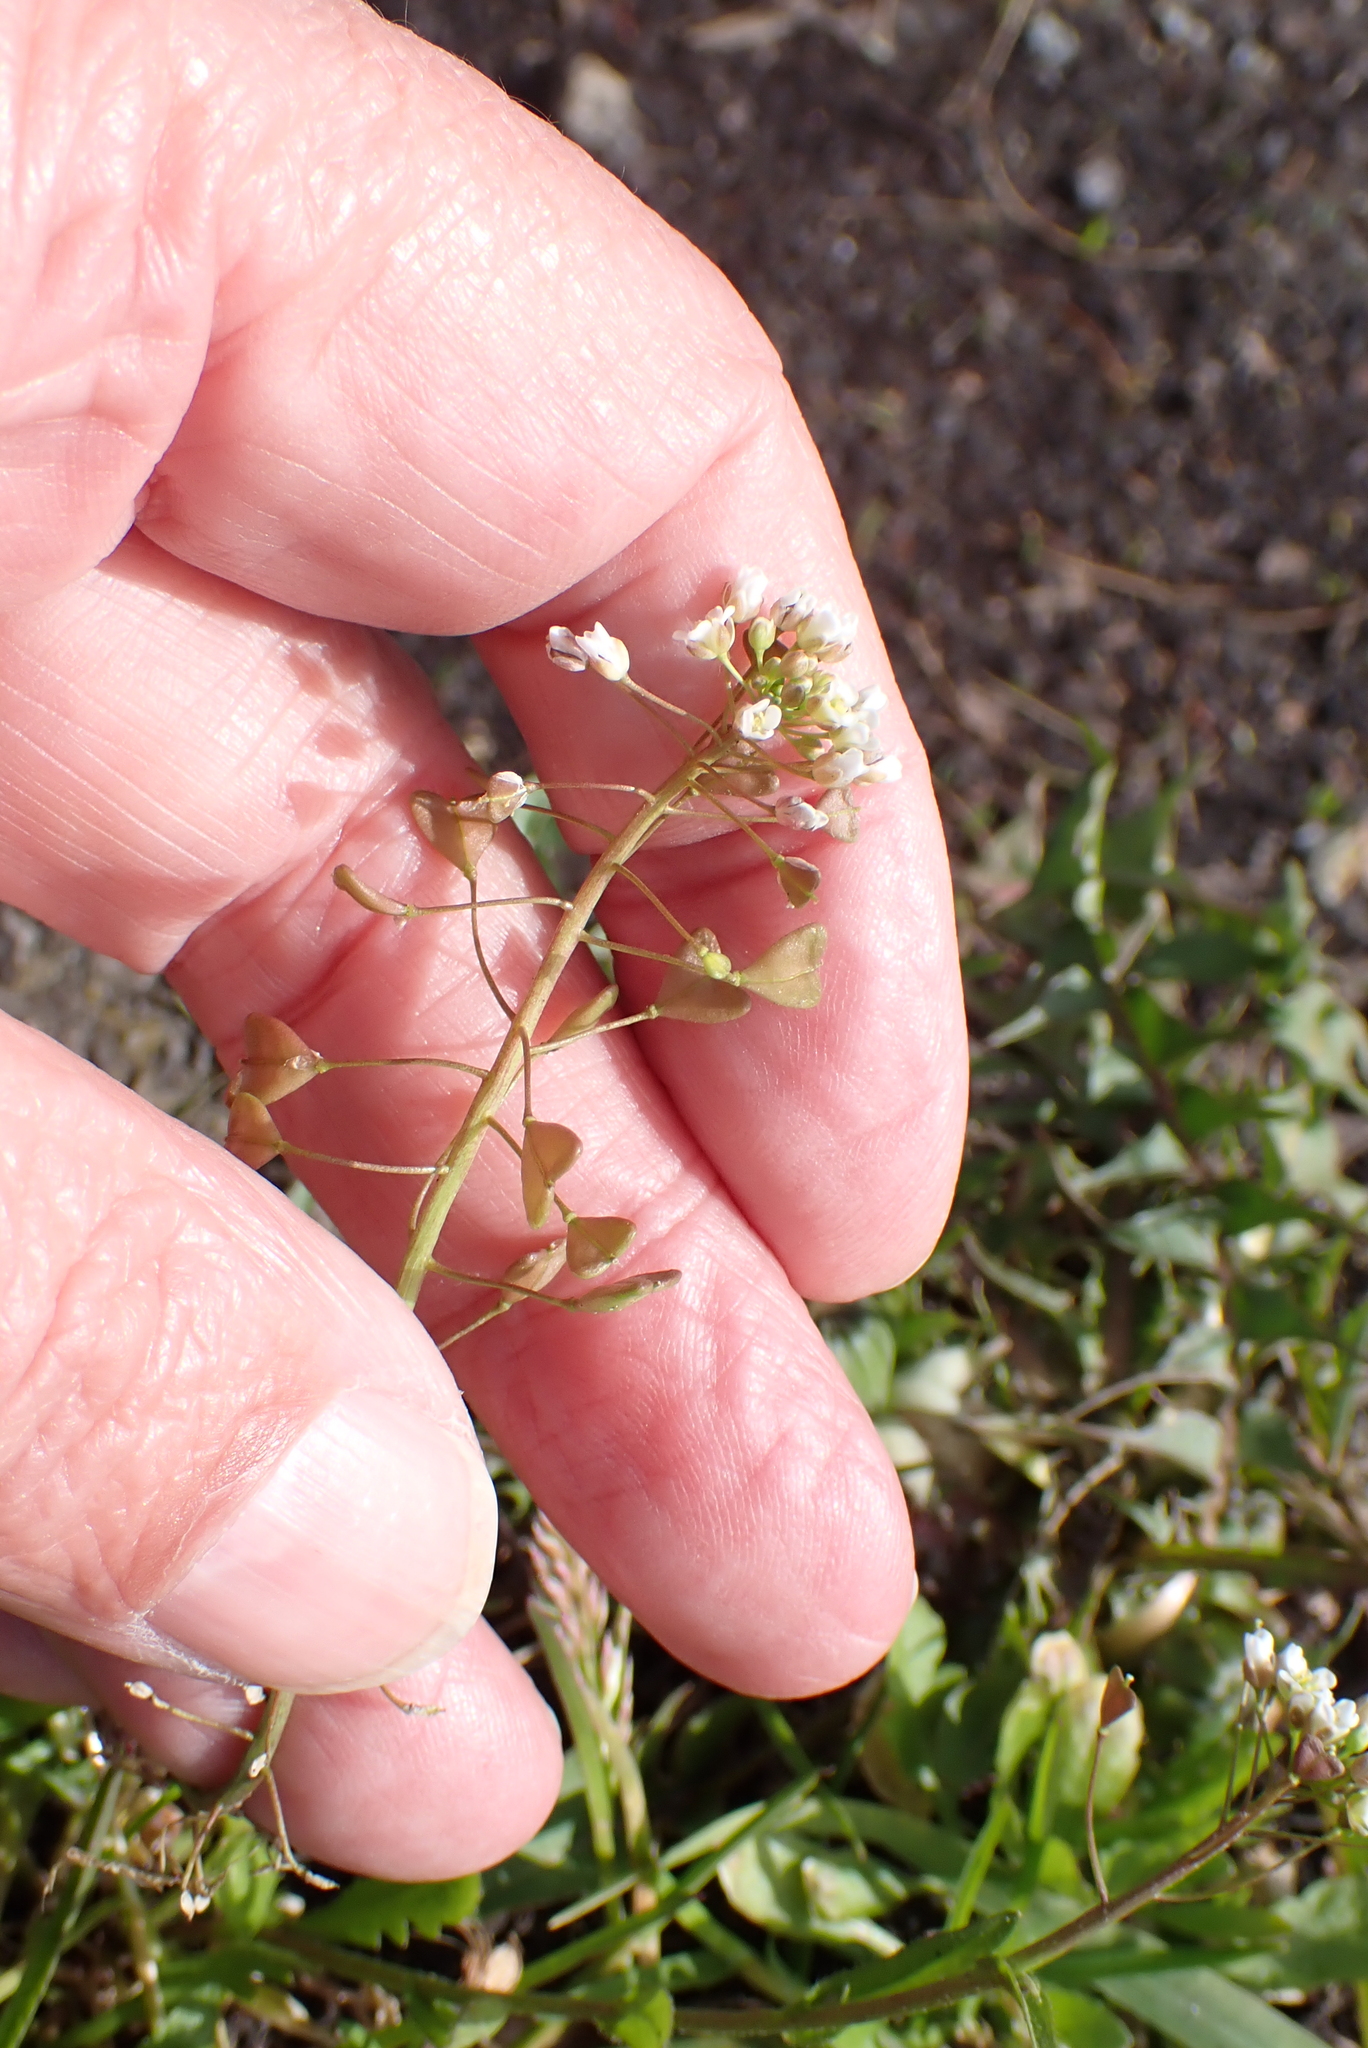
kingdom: Plantae
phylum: Tracheophyta
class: Magnoliopsida
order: Brassicales
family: Brassicaceae
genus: Capsella
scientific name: Capsella bursa-pastoris
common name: Shepherd's purse
